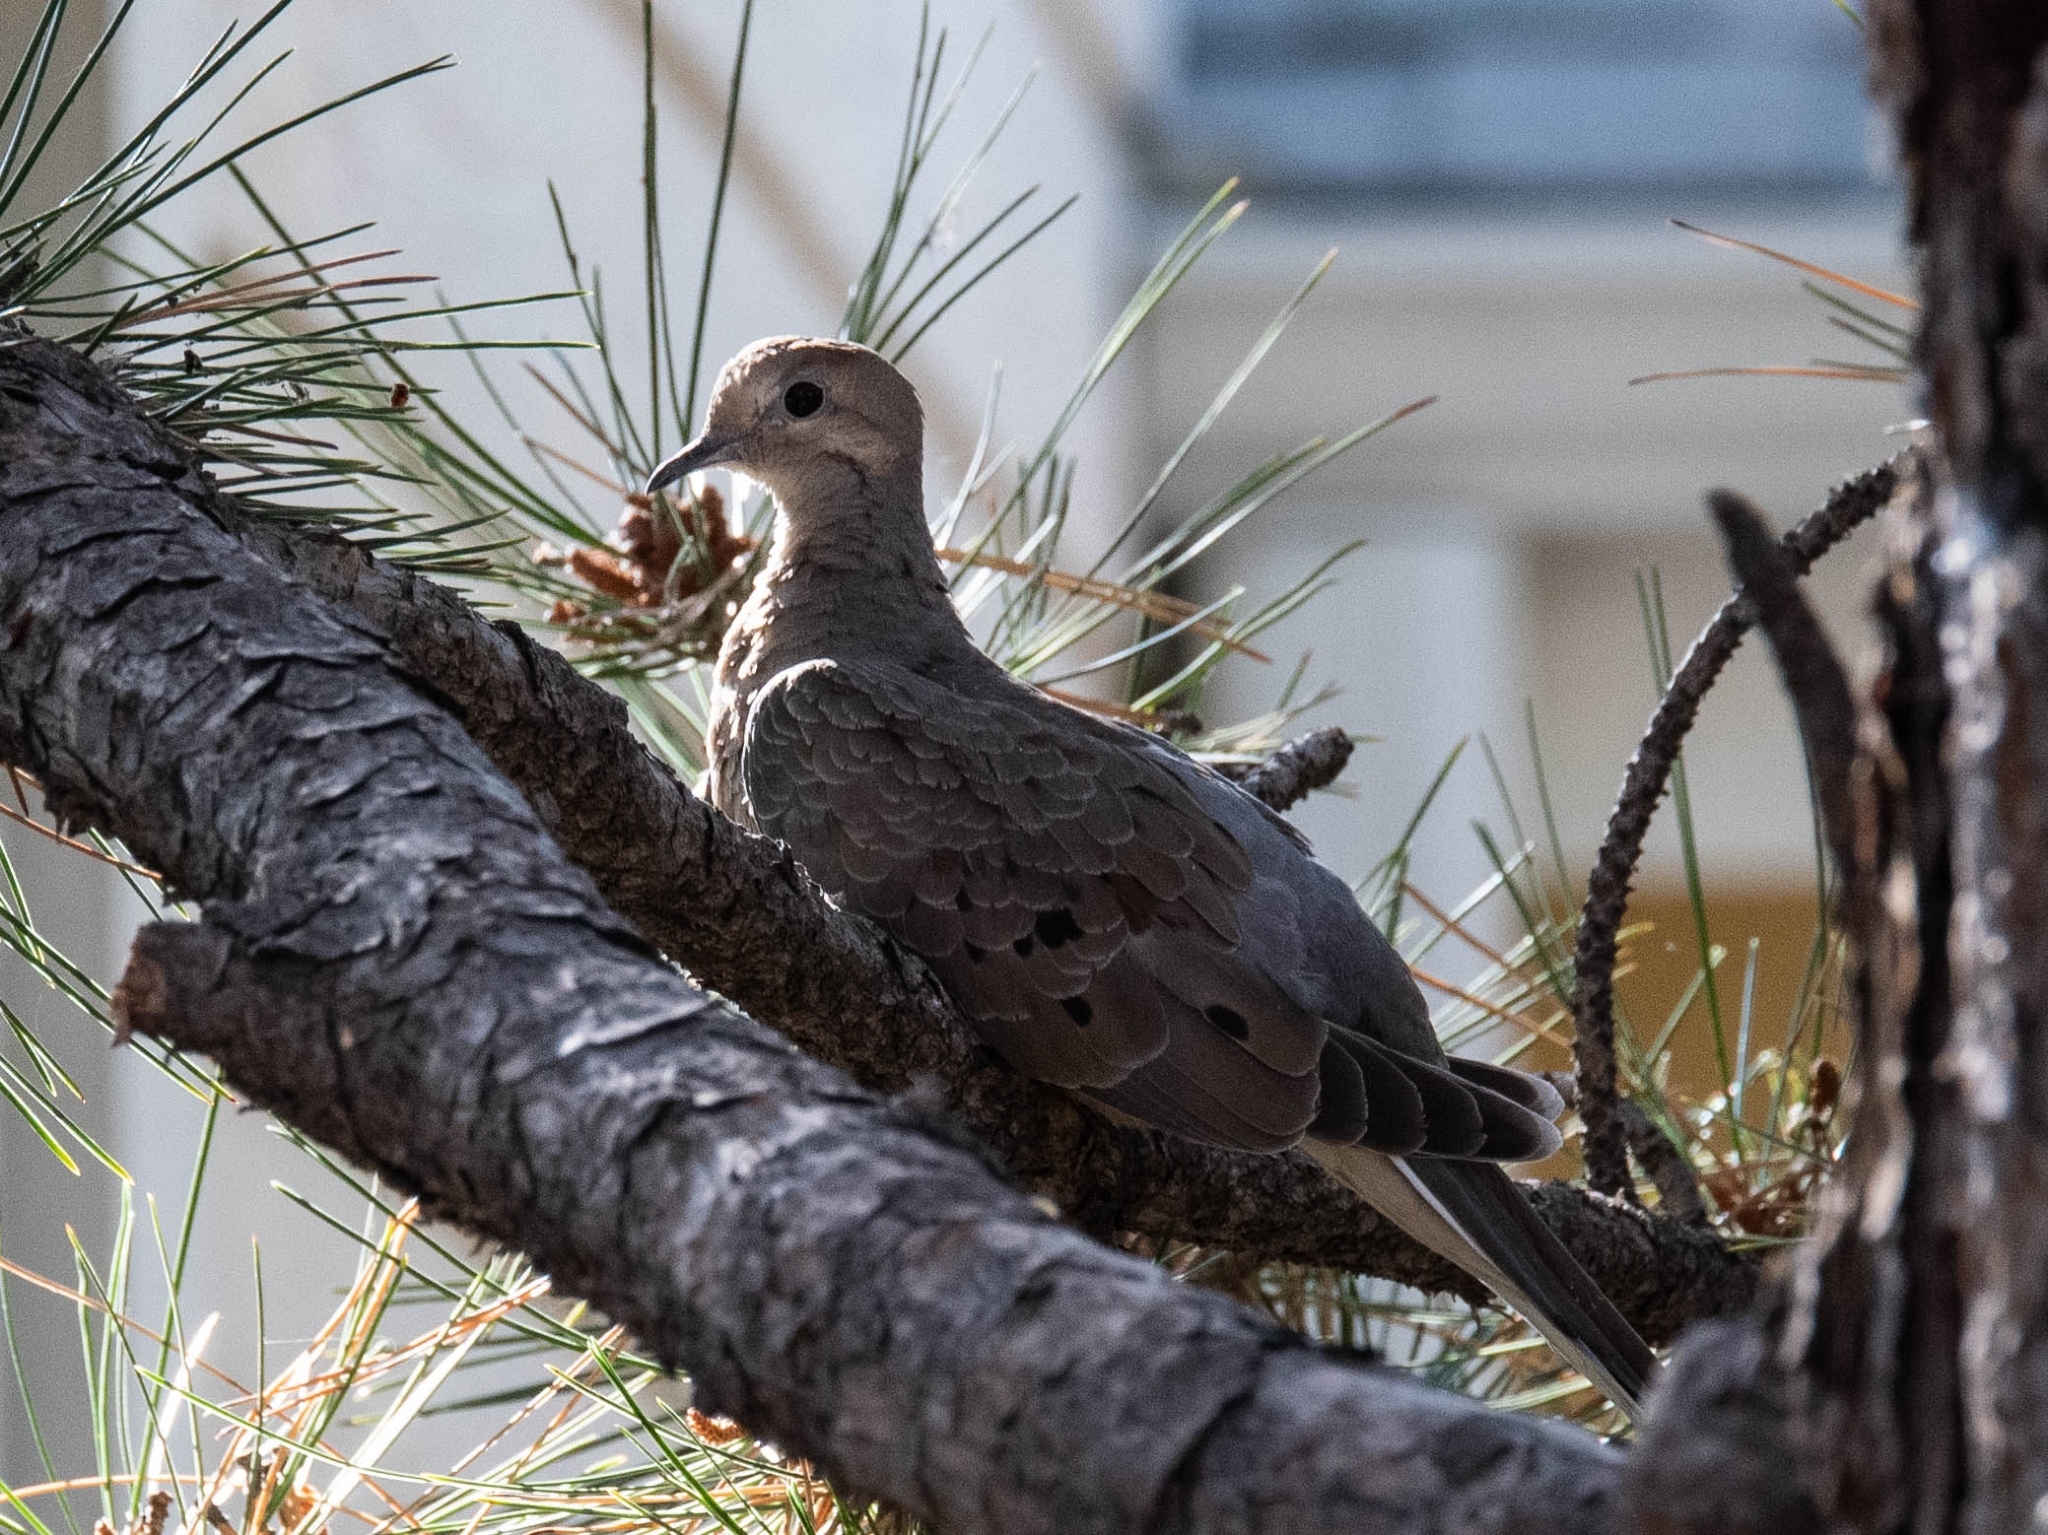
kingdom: Animalia
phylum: Chordata
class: Aves
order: Columbiformes
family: Columbidae
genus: Zenaida
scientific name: Zenaida macroura
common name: Mourning dove
